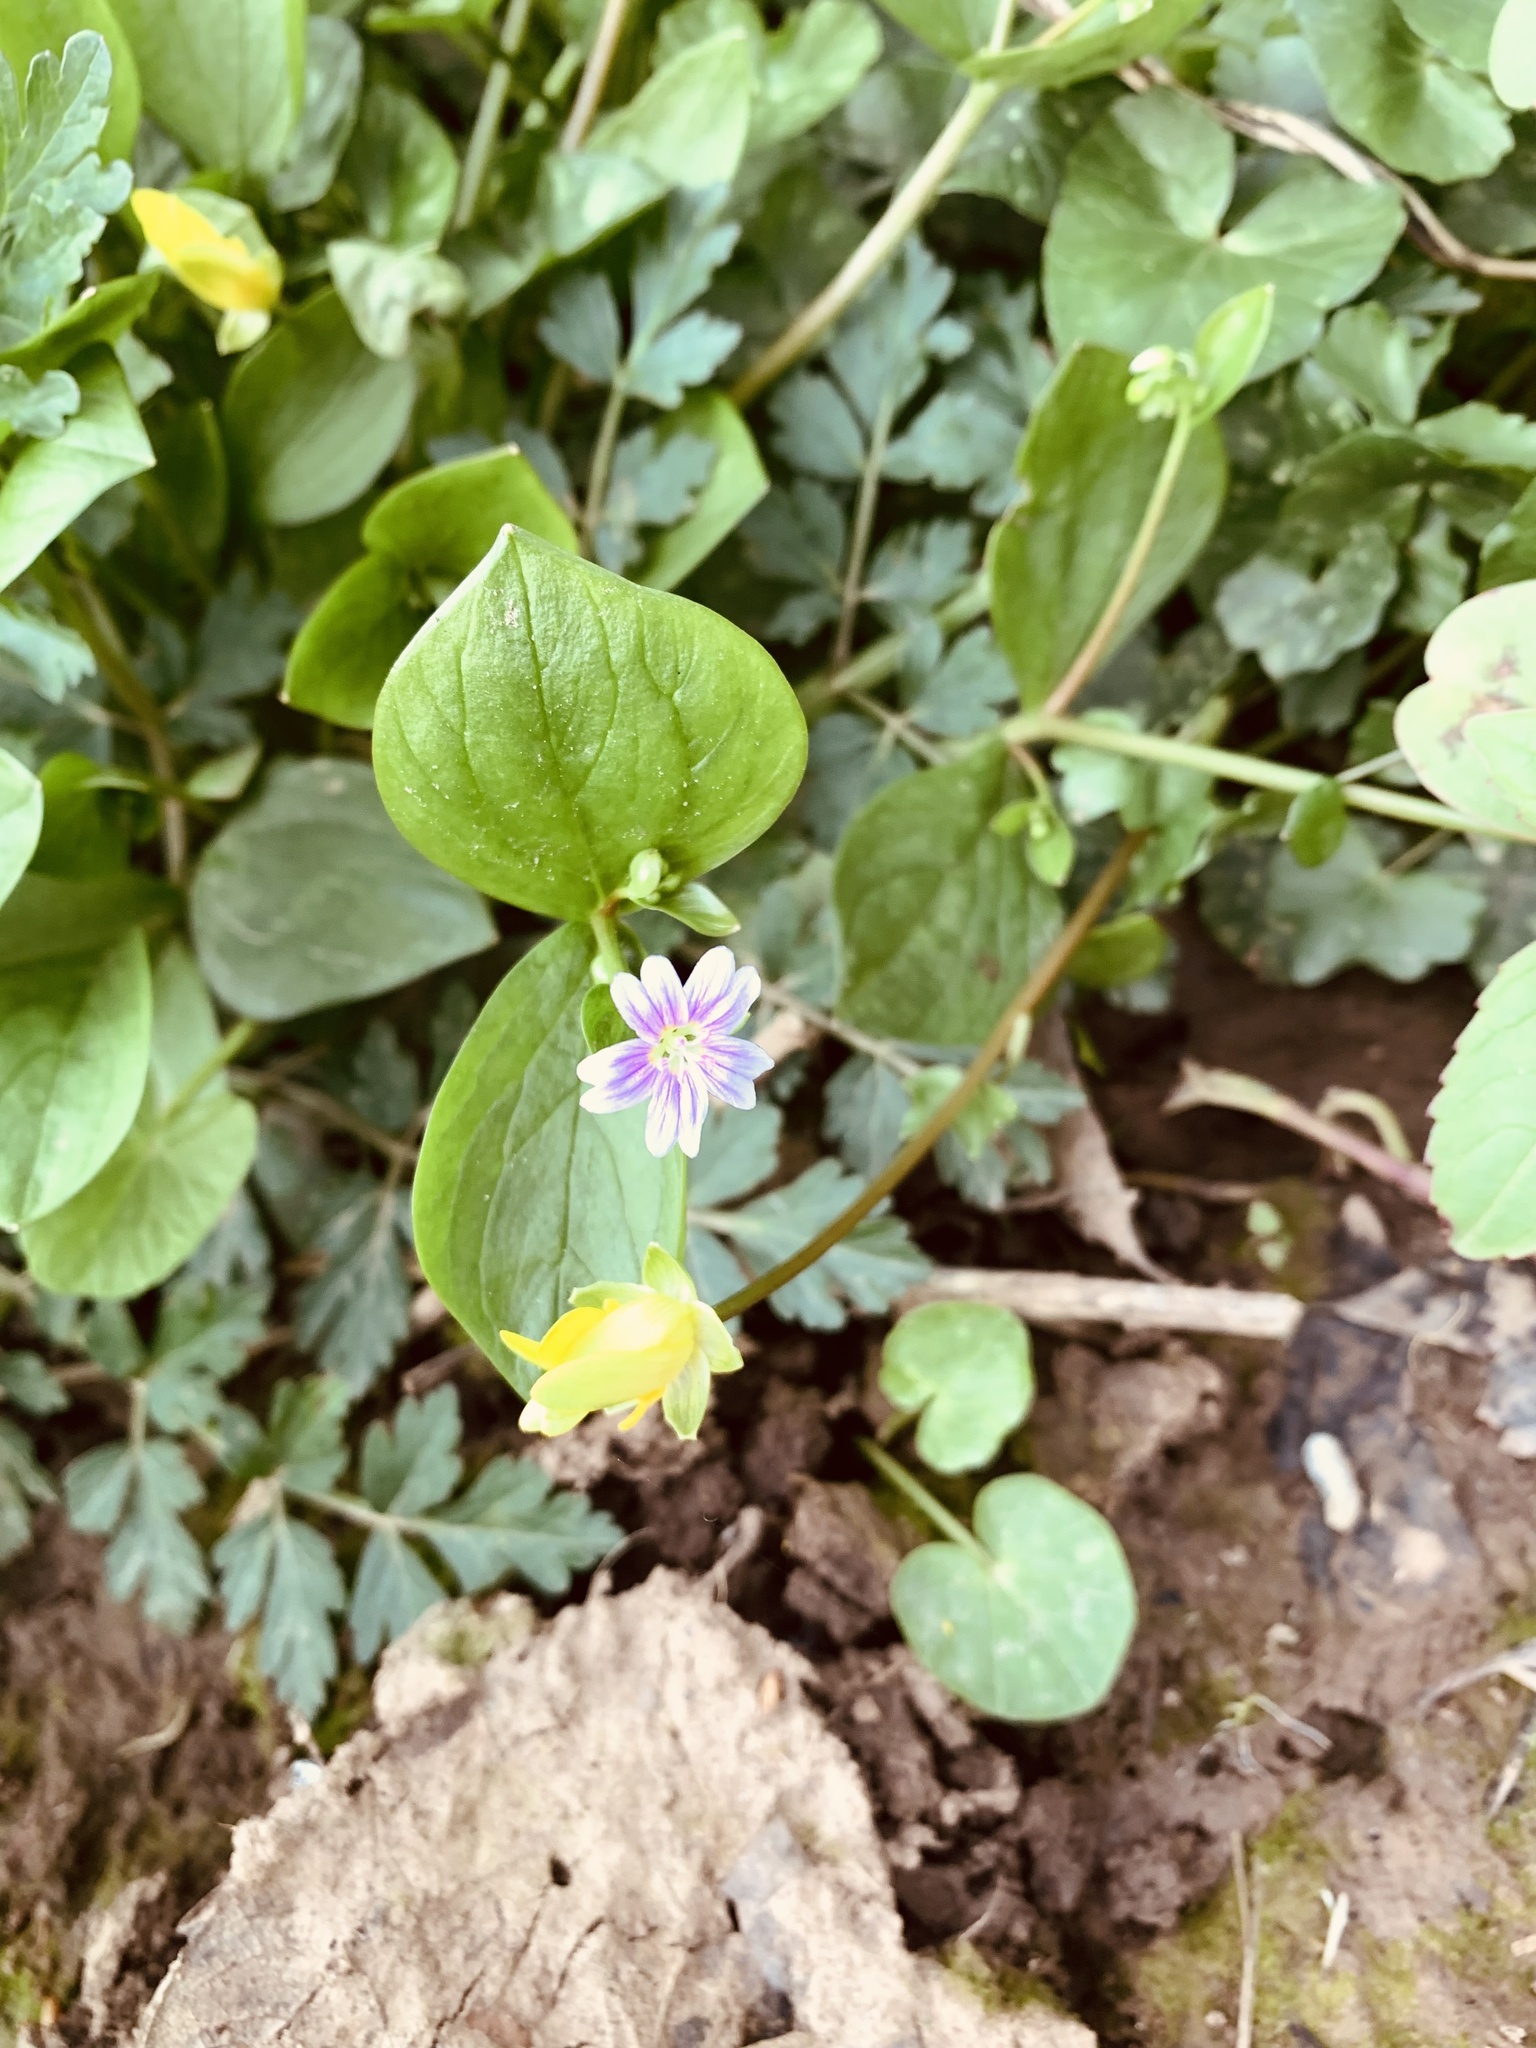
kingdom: Plantae
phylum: Tracheophyta
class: Magnoliopsida
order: Caryophyllales
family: Montiaceae
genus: Claytonia
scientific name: Claytonia sibirica
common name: Pink purslane
